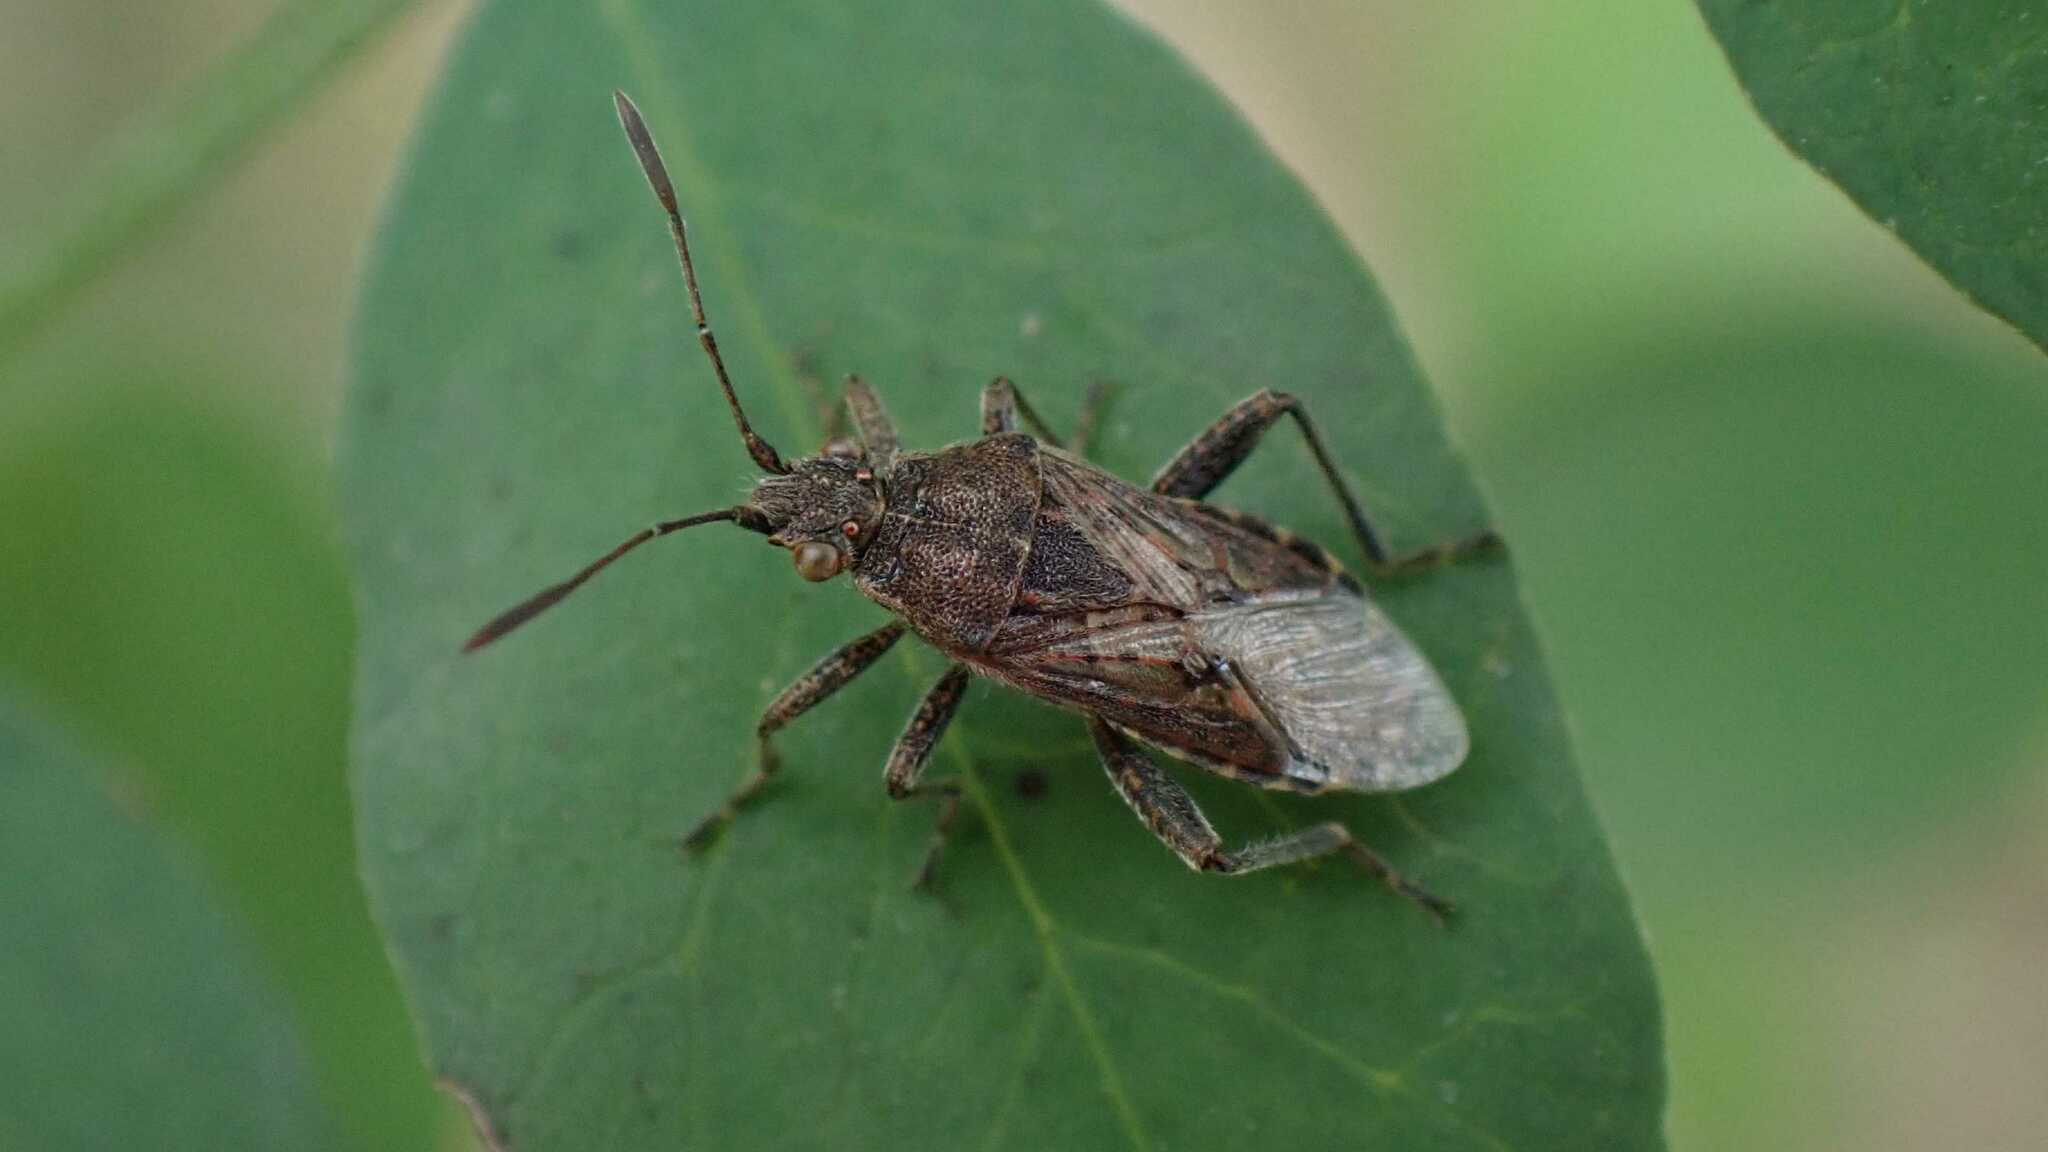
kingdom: Animalia
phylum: Arthropoda
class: Insecta
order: Hemiptera
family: Rhopalidae
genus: Stictopleurus
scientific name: Stictopleurus punctatonervosus
